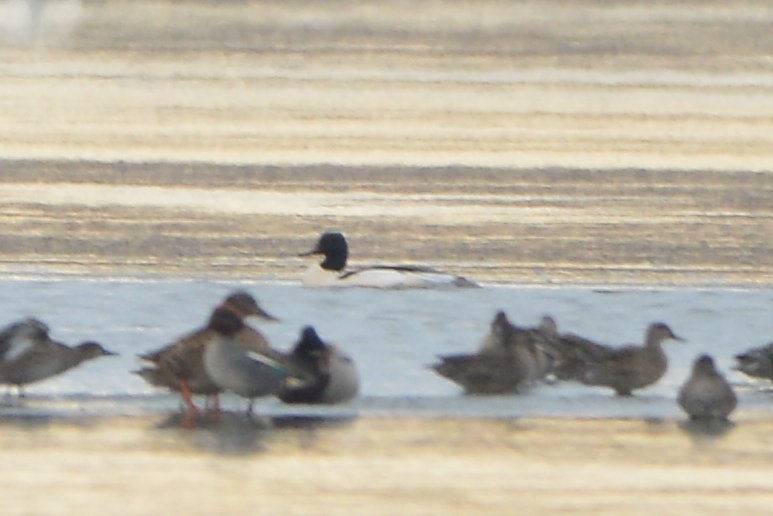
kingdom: Animalia
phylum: Chordata
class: Aves
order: Anseriformes
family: Anatidae
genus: Mergus
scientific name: Mergus merganser
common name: Common merganser
